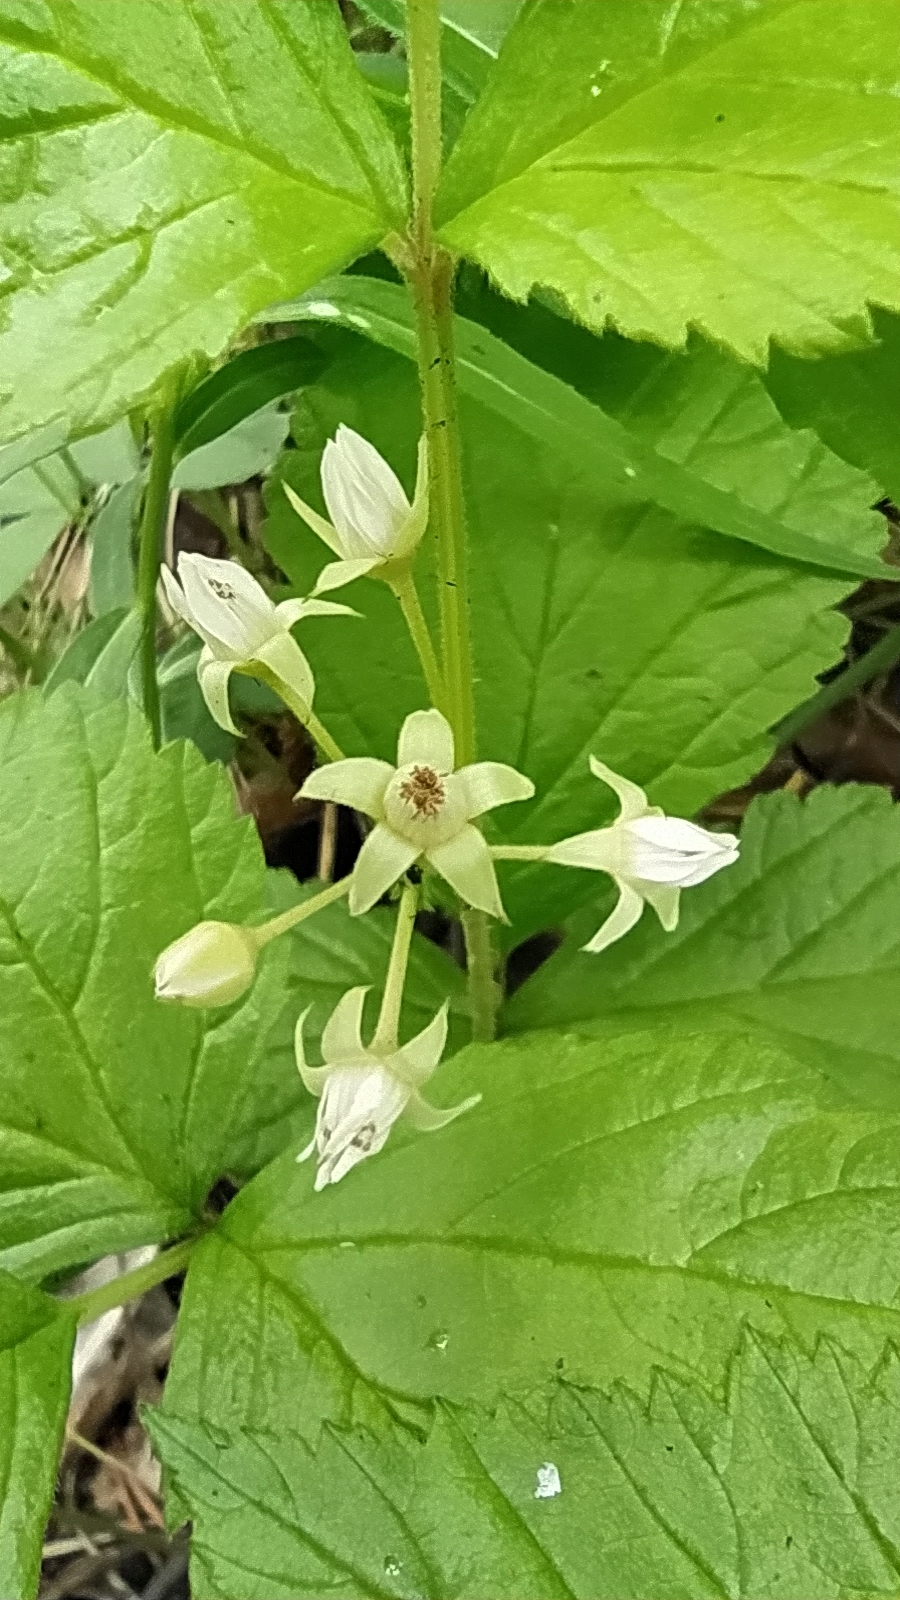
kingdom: Plantae
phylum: Tracheophyta
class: Magnoliopsida
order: Rosales
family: Rosaceae
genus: Rubus
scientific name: Rubus saxatilis
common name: Stone bramble
